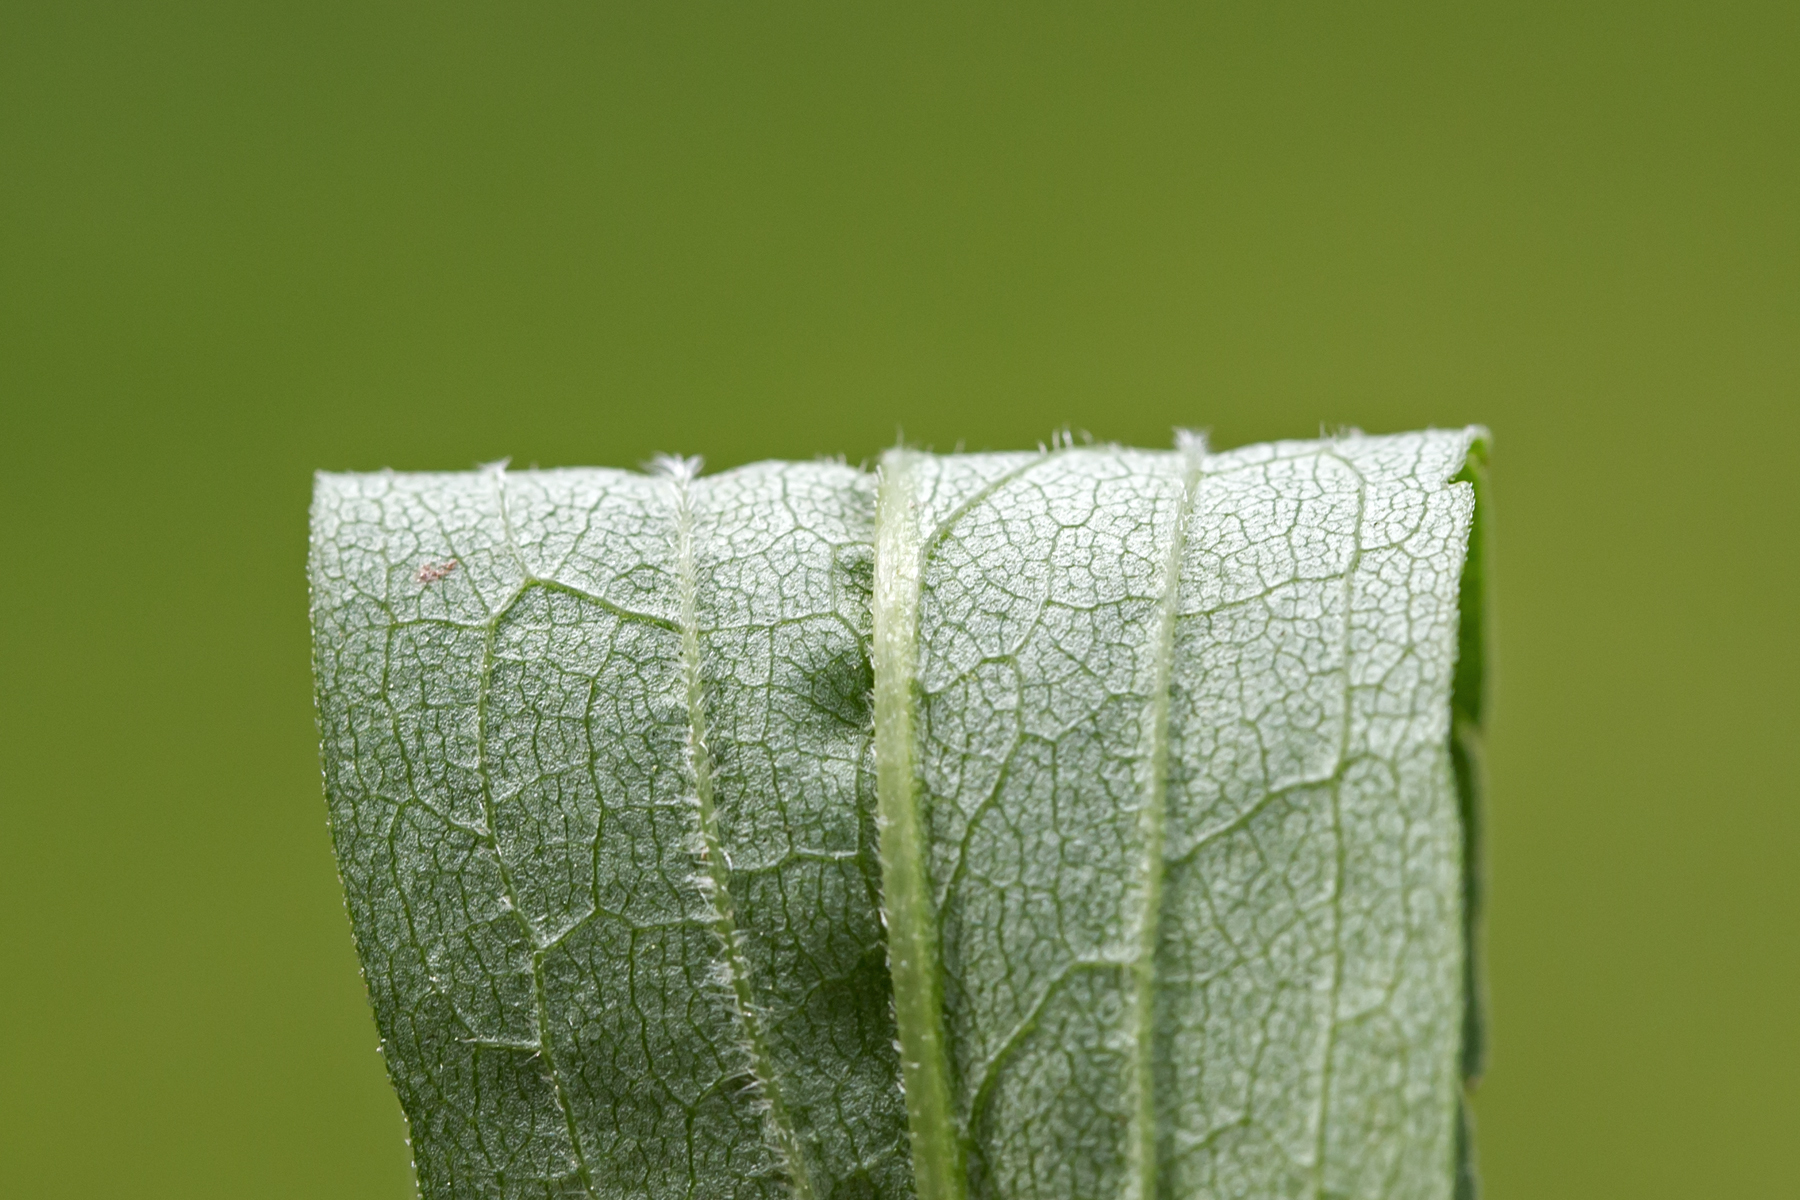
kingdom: Plantae
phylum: Tracheophyta
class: Magnoliopsida
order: Asterales
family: Asteraceae
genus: Solidago
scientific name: Solidago gigantea
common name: Giant goldenrod
